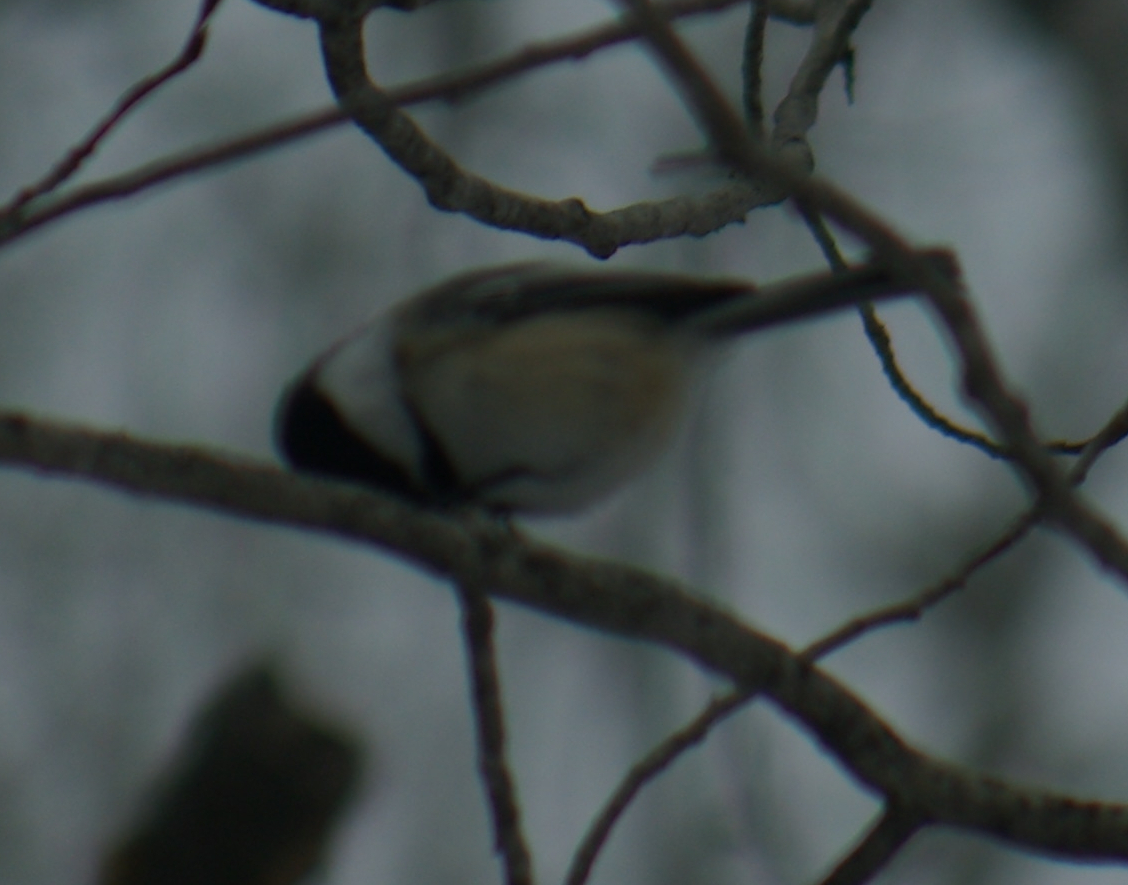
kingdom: Animalia
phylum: Chordata
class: Aves
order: Passeriformes
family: Paridae
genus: Poecile
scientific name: Poecile atricapillus
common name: Black-capped chickadee
